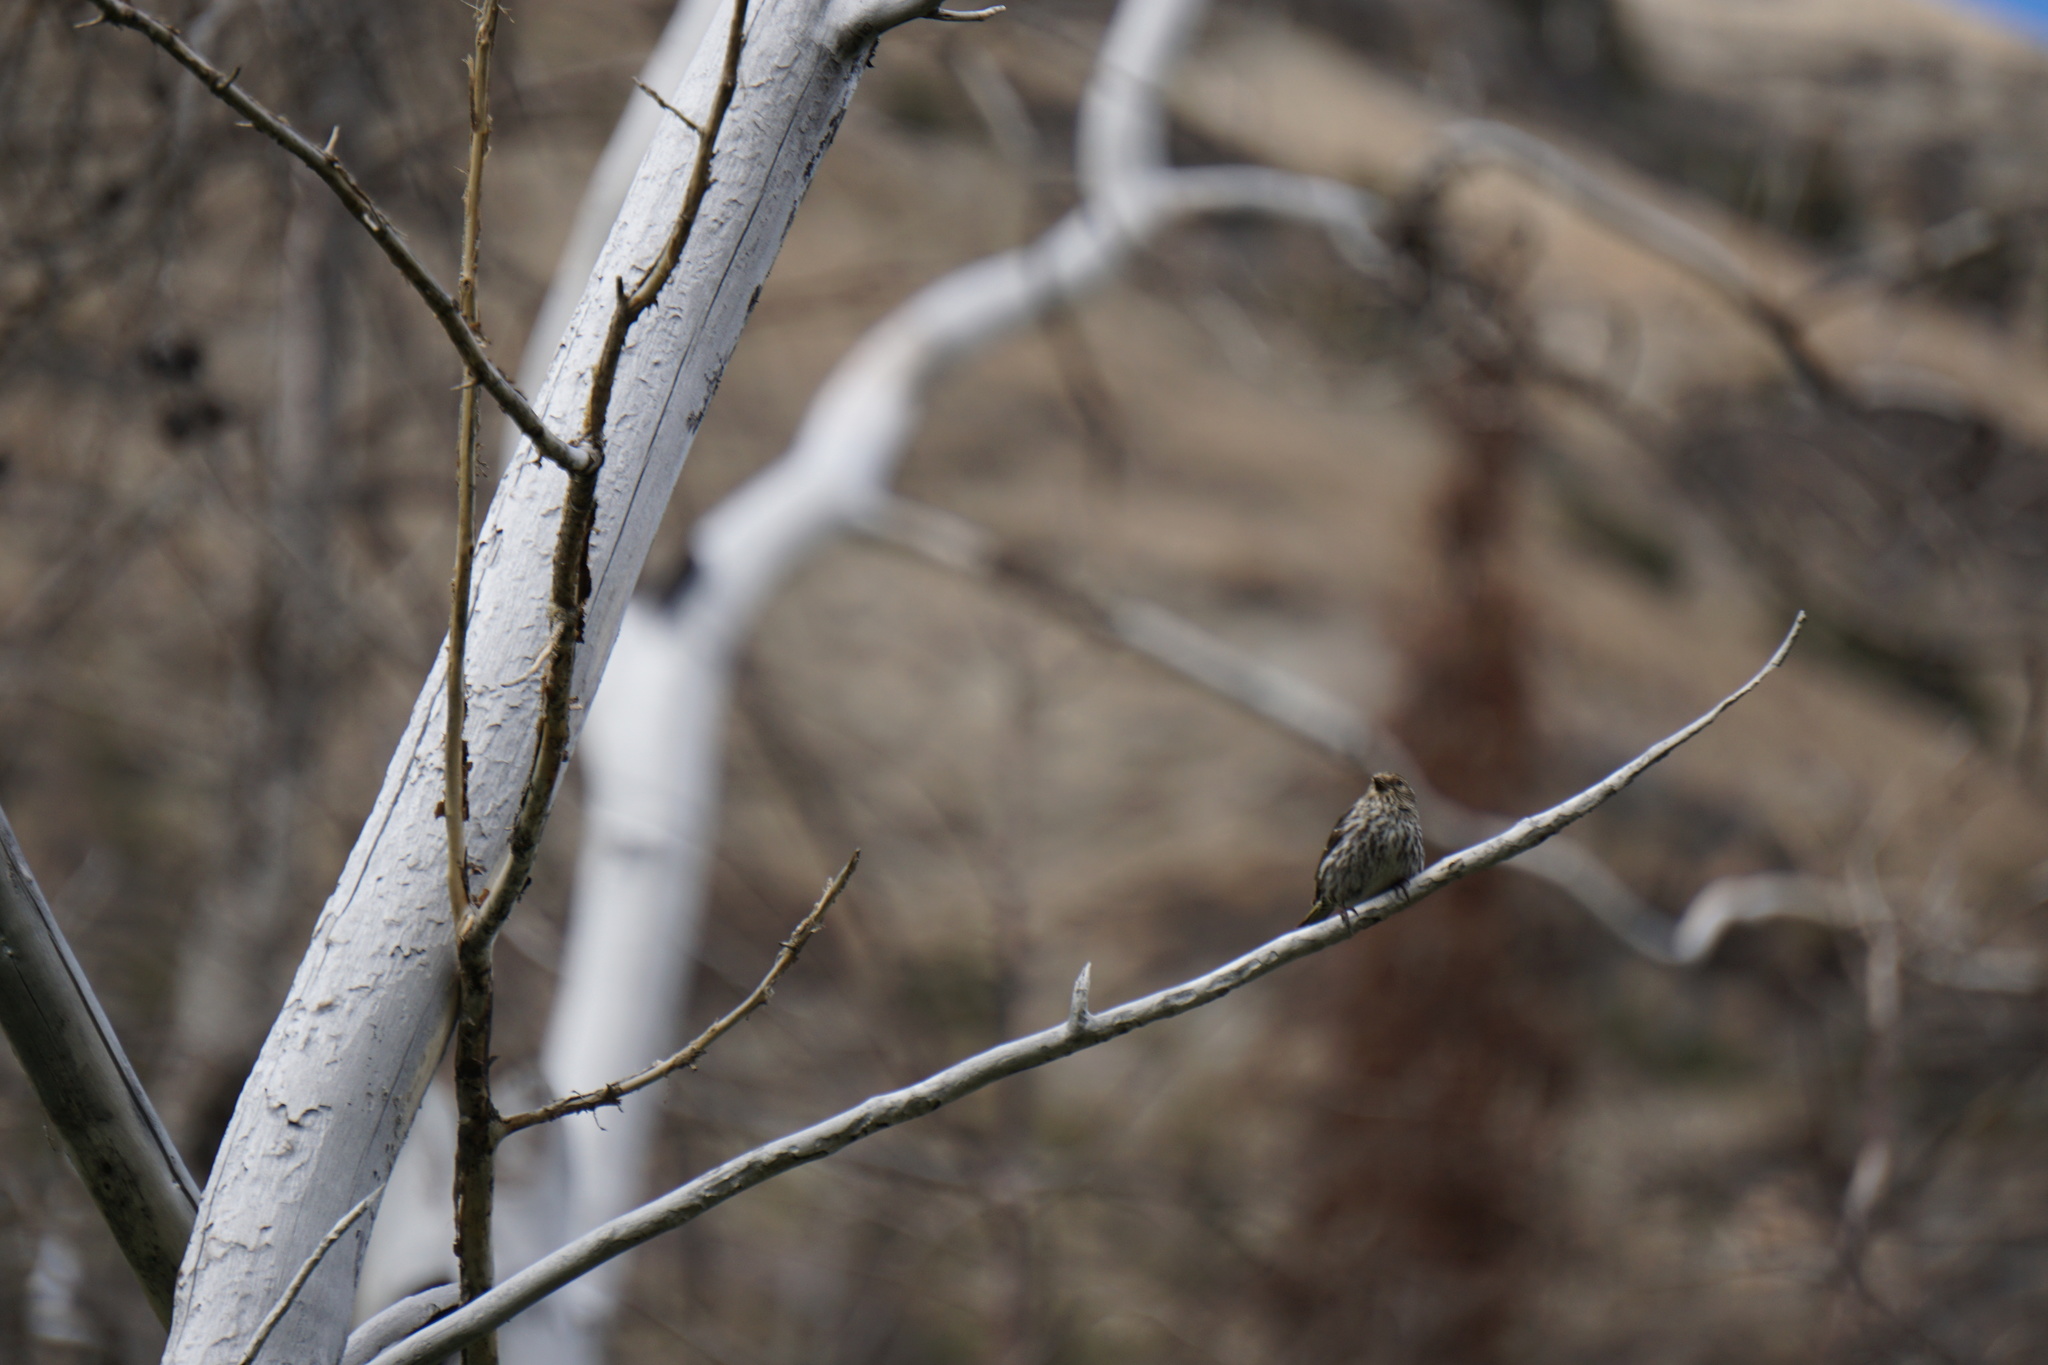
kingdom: Animalia
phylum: Chordata
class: Aves
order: Passeriformes
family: Fringillidae
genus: Spinus
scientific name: Spinus pinus
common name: Pine siskin
